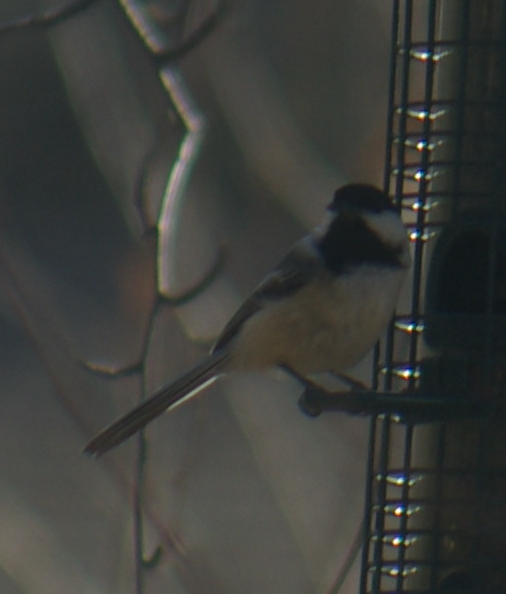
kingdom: Animalia
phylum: Chordata
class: Aves
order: Passeriformes
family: Paridae
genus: Poecile
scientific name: Poecile atricapillus
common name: Black-capped chickadee
